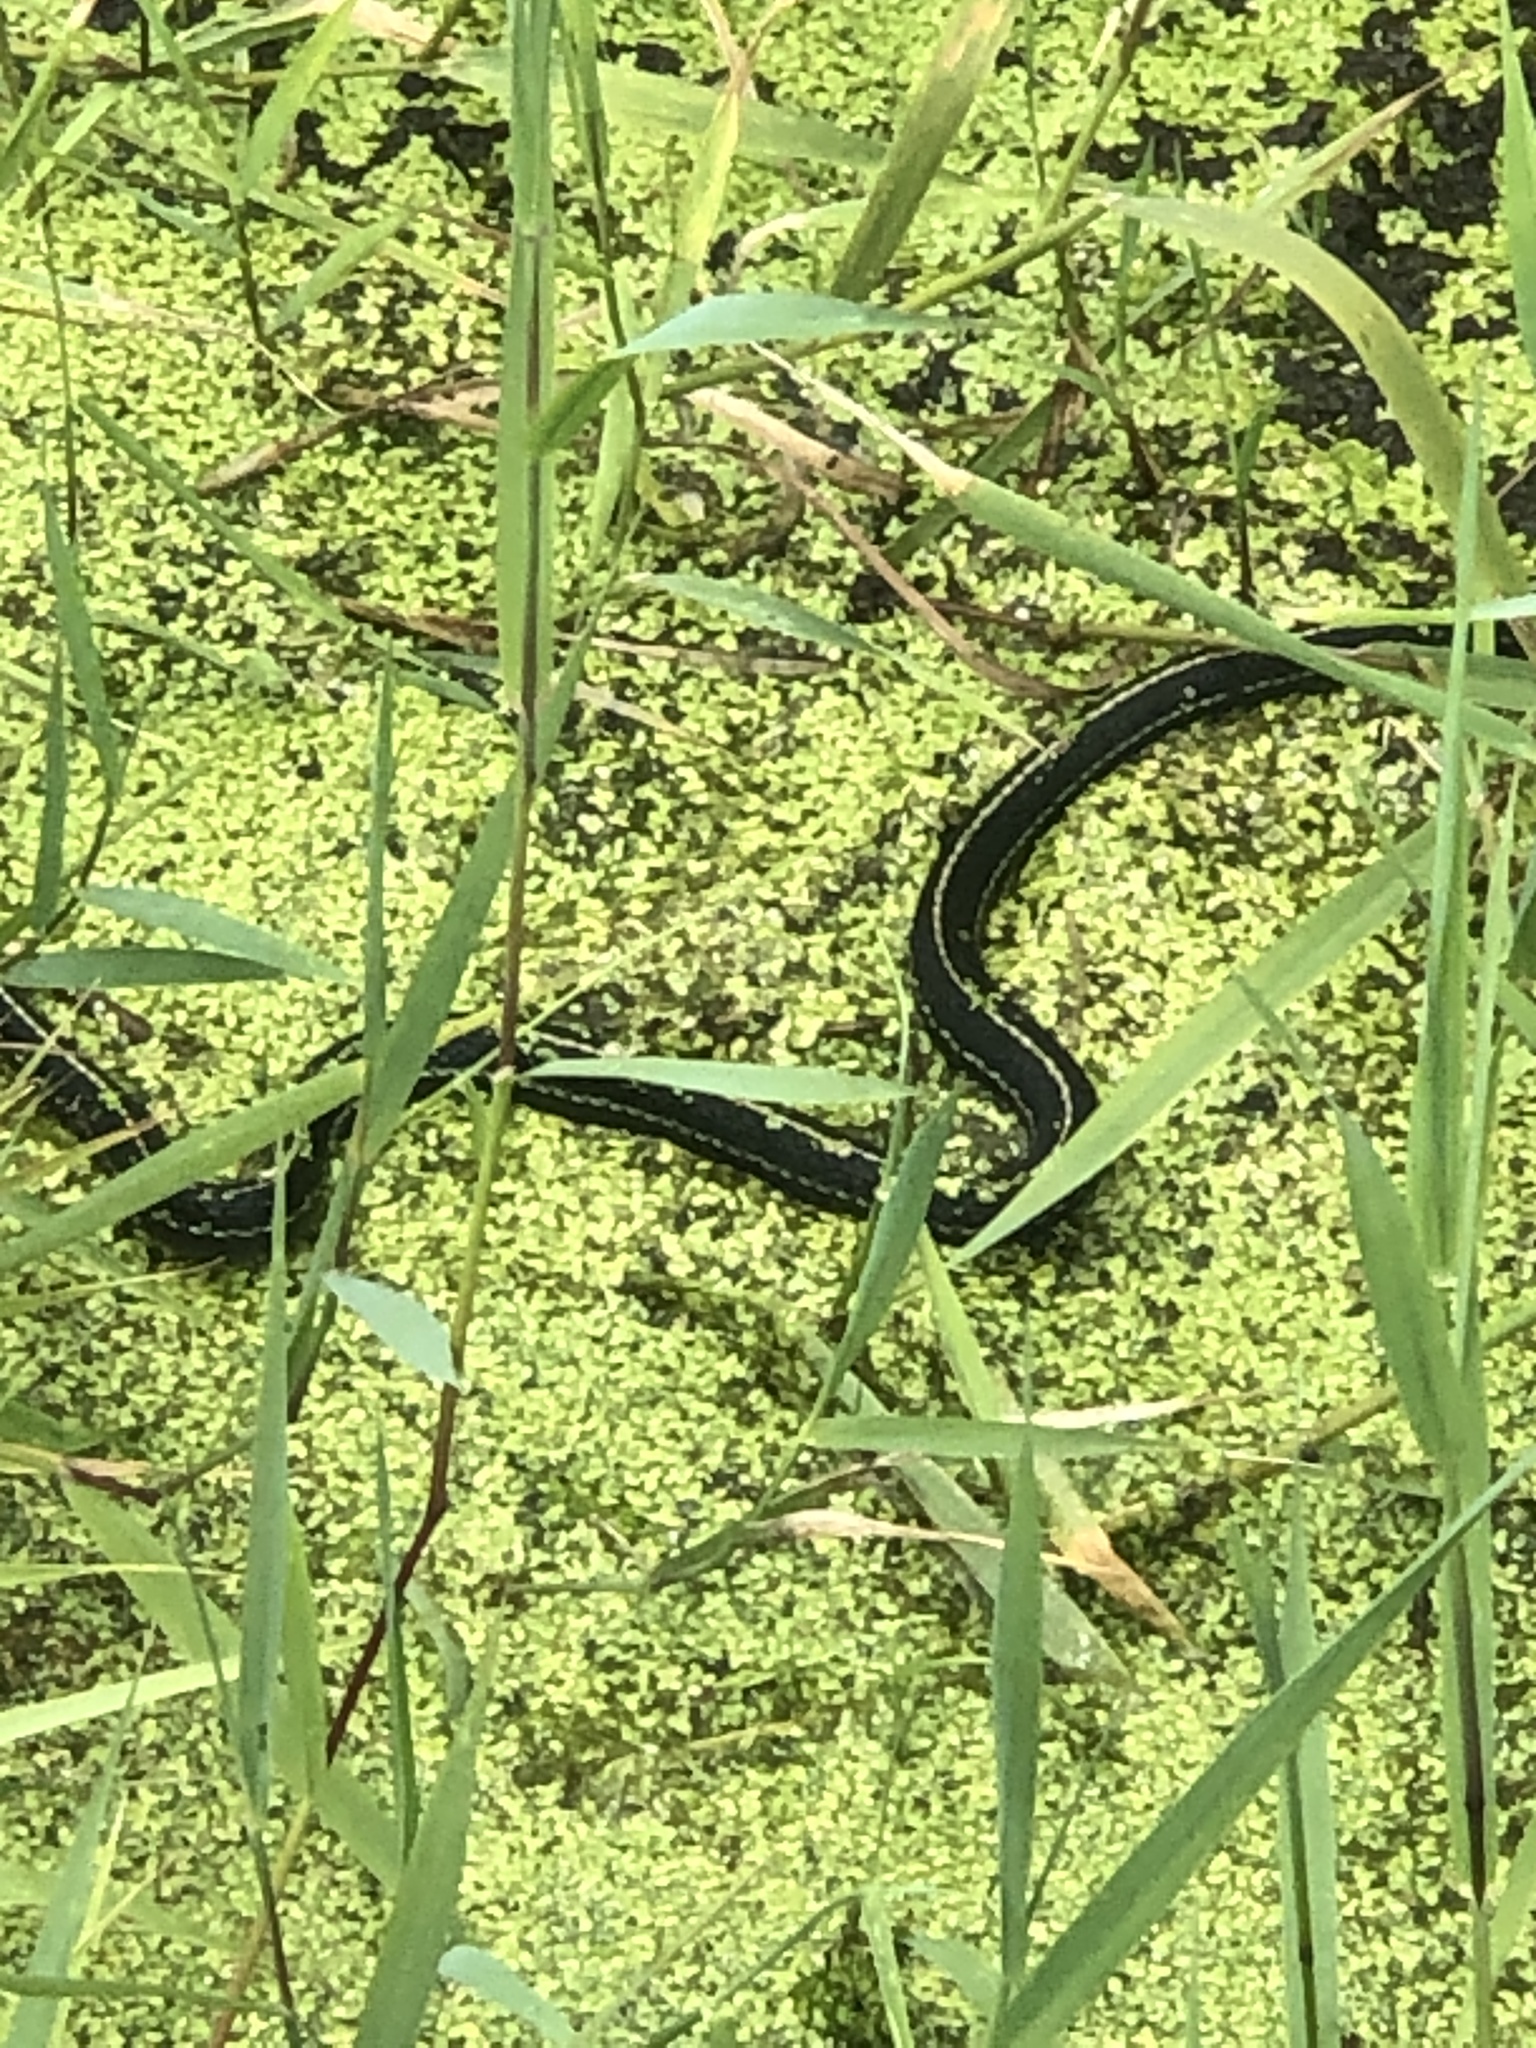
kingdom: Animalia
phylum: Chordata
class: Squamata
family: Colubridae
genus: Thamnophis
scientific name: Thamnophis
